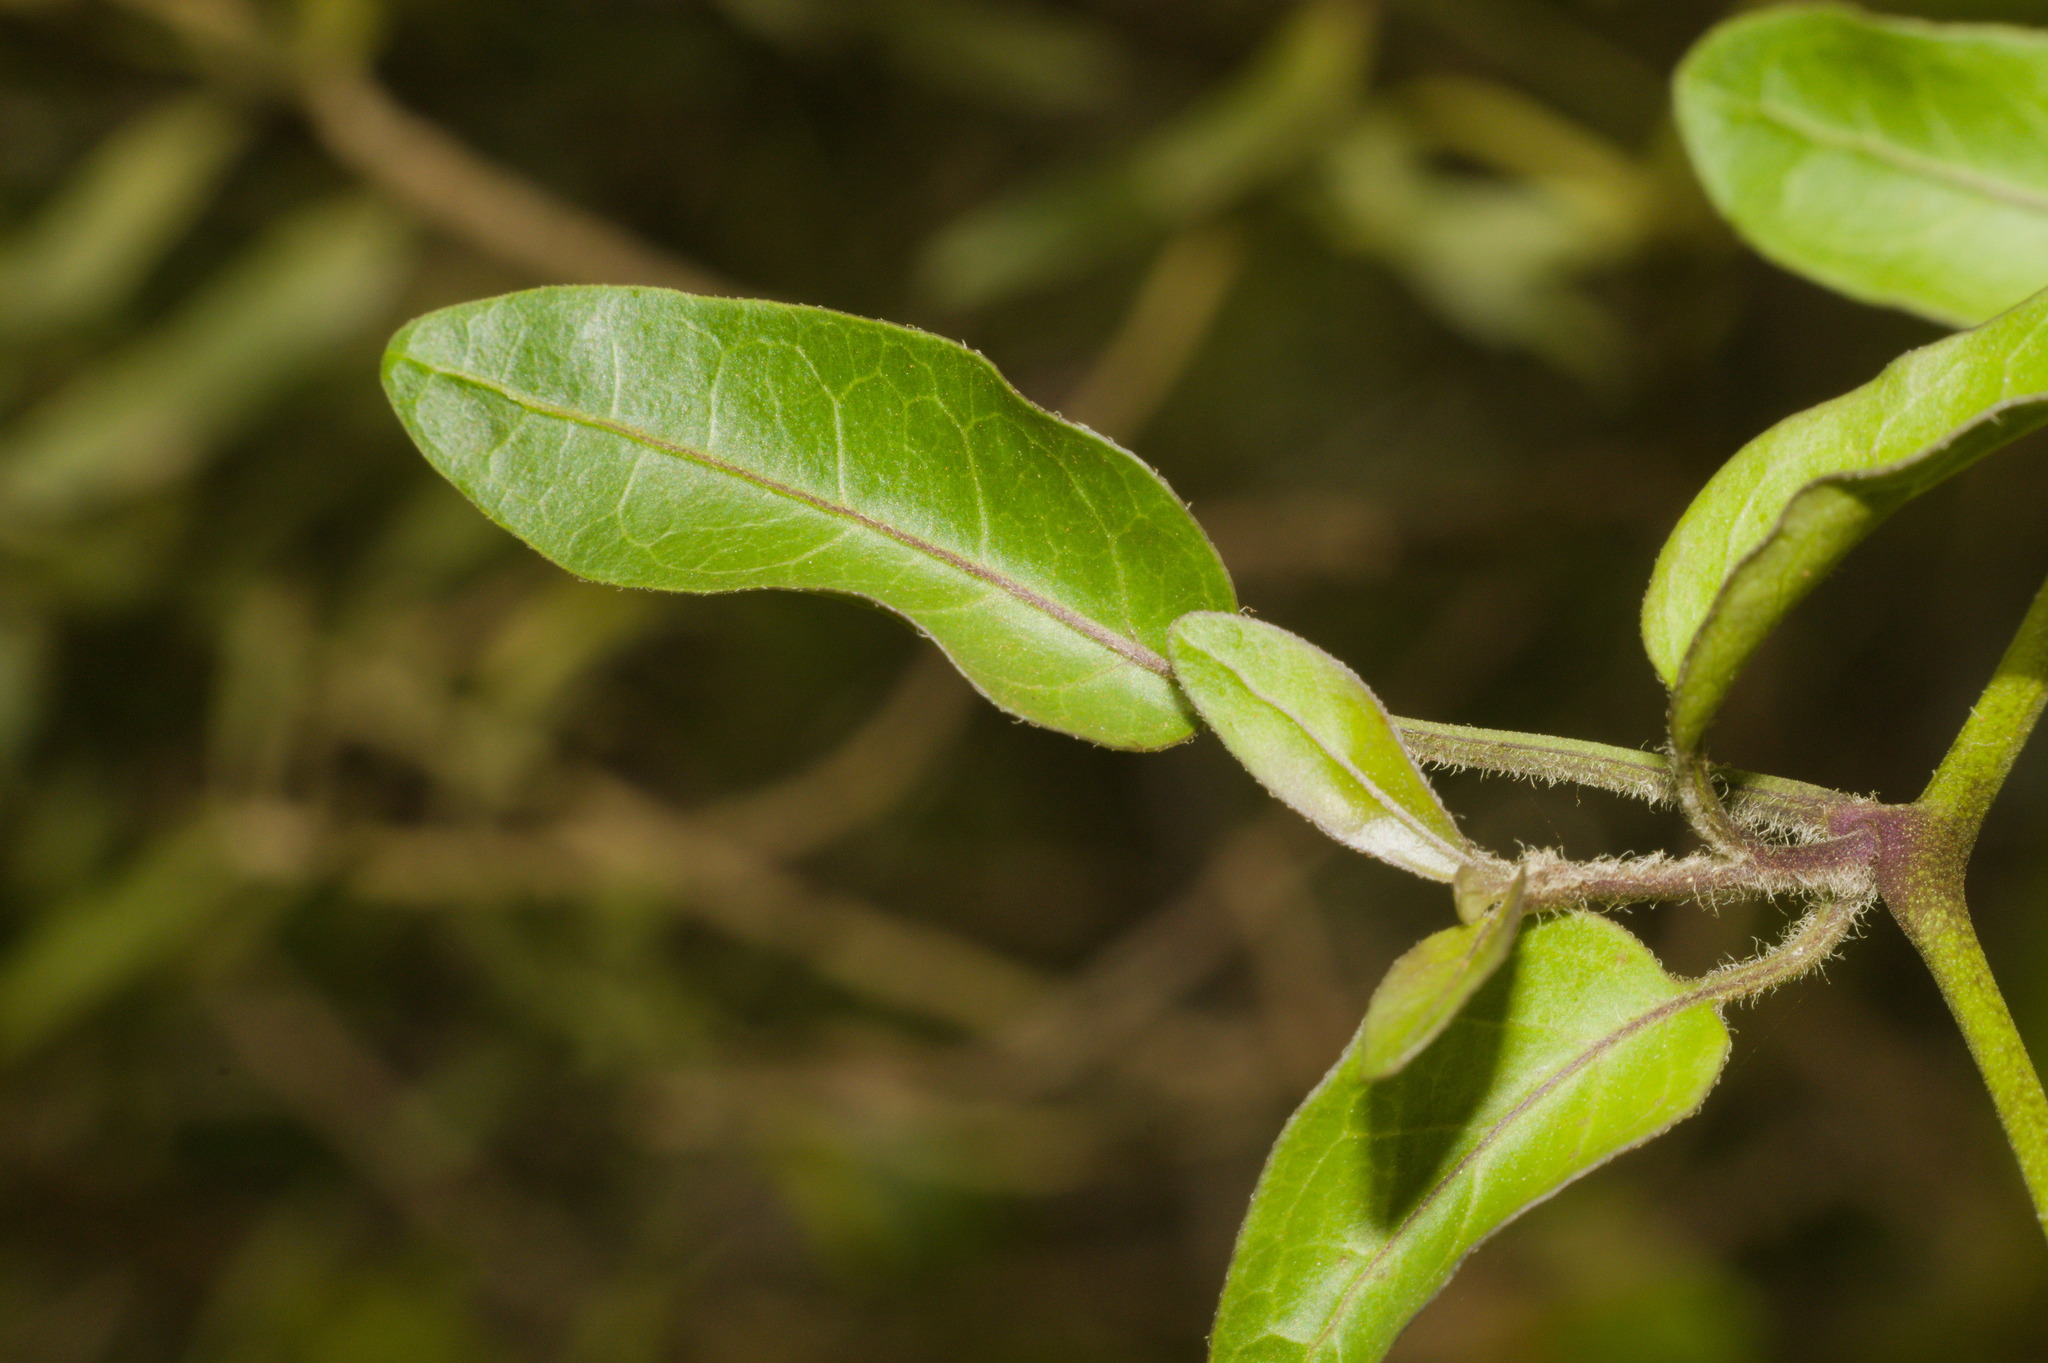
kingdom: Plantae
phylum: Tracheophyta
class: Magnoliopsida
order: Solanales
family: Solanaceae
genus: Solanum
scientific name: Solanum laxum
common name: Nightshade
